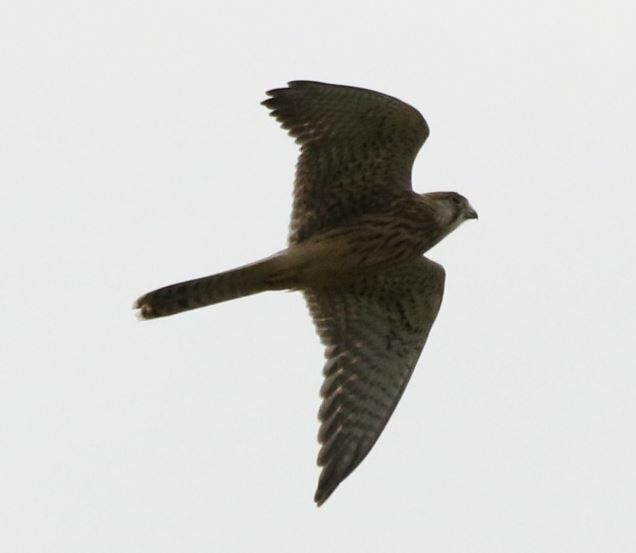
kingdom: Animalia
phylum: Chordata
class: Aves
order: Falconiformes
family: Falconidae
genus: Falco
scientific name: Falco tinnunculus
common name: Common kestrel
